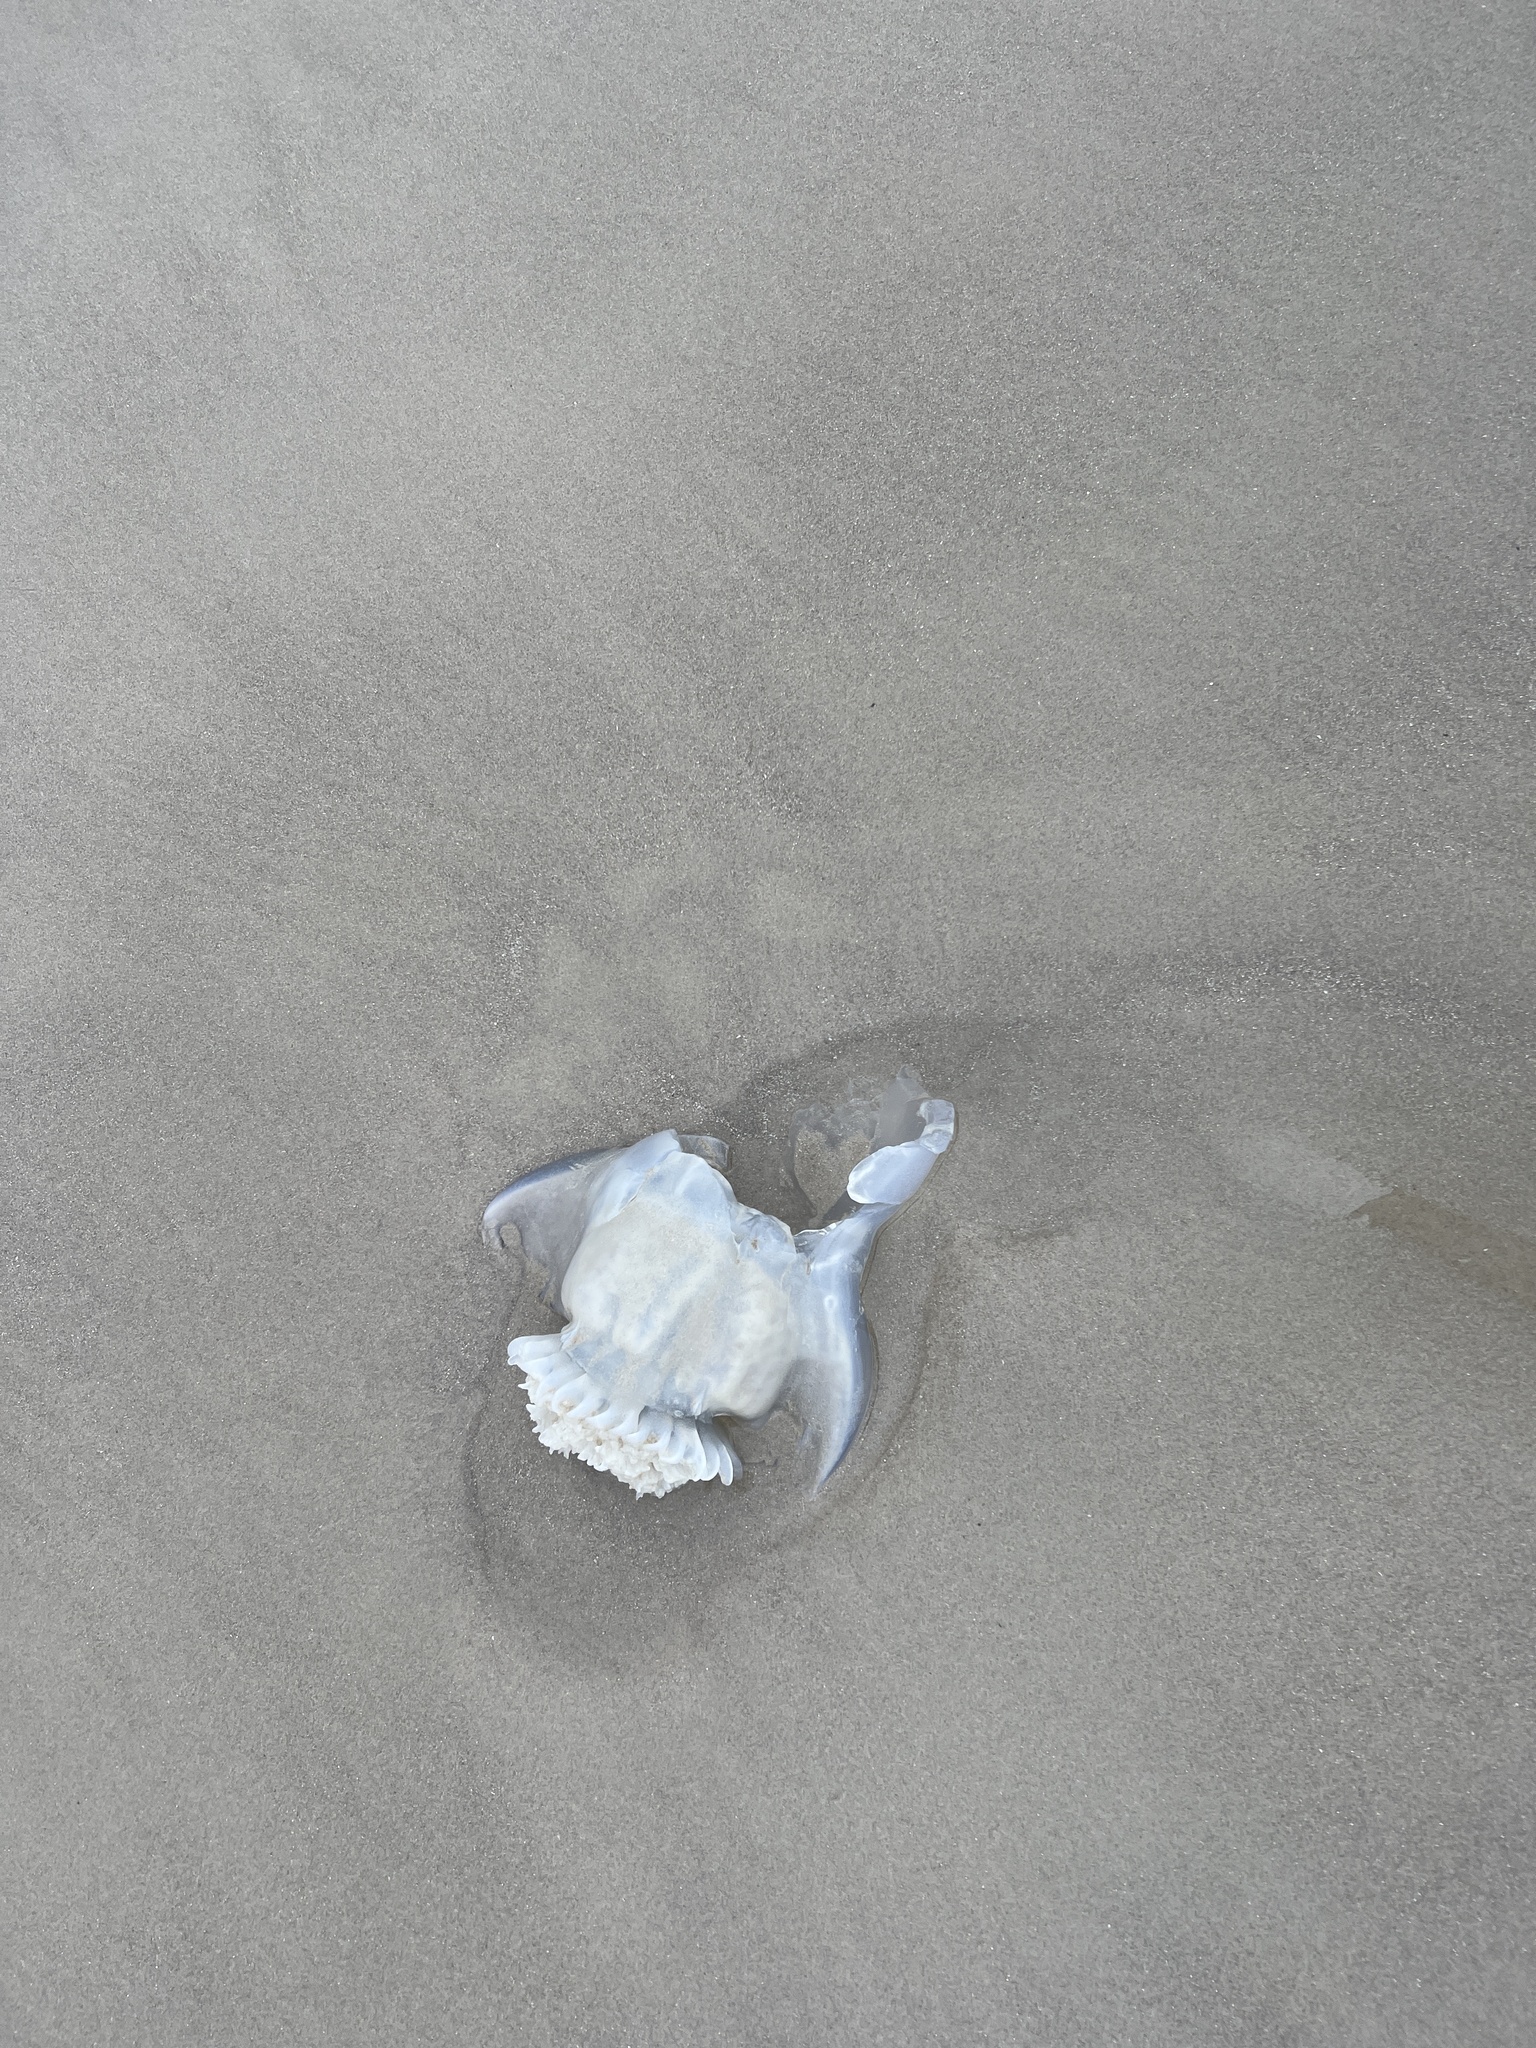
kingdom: Animalia
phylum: Cnidaria
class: Scyphozoa
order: Rhizostomeae
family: Stomolophidae
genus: Stomolophus
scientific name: Stomolophus meleagris
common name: Cabbagehead
